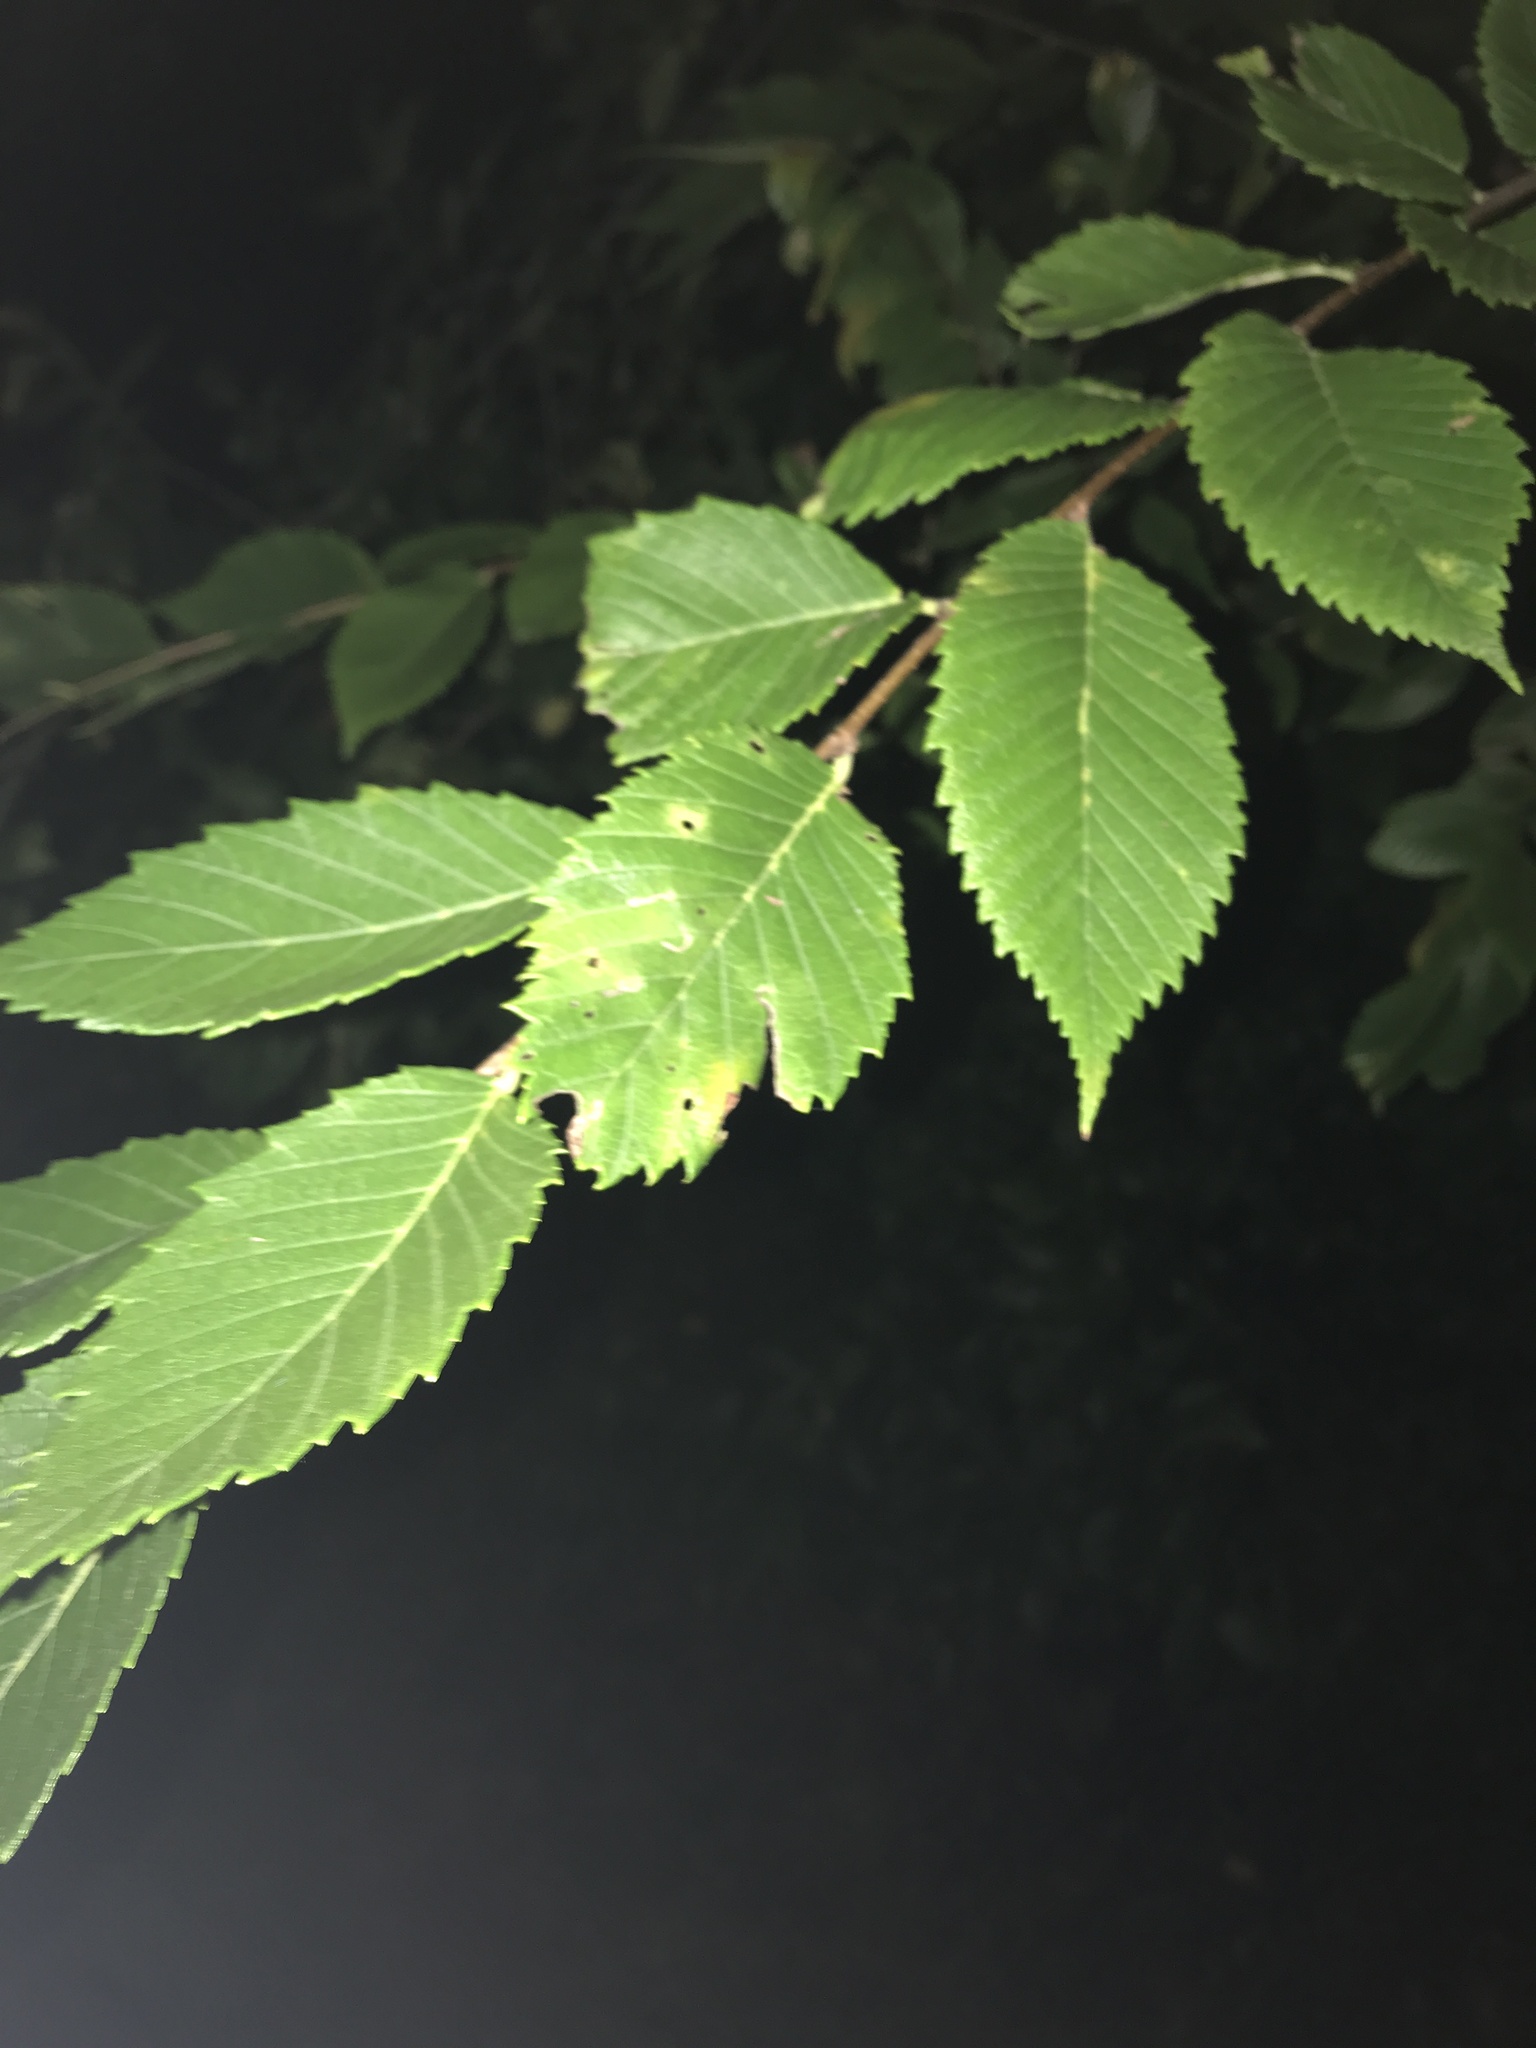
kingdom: Plantae
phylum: Tracheophyta
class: Magnoliopsida
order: Rosales
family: Ulmaceae
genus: Ulmus
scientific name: Ulmus americana
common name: American elm
